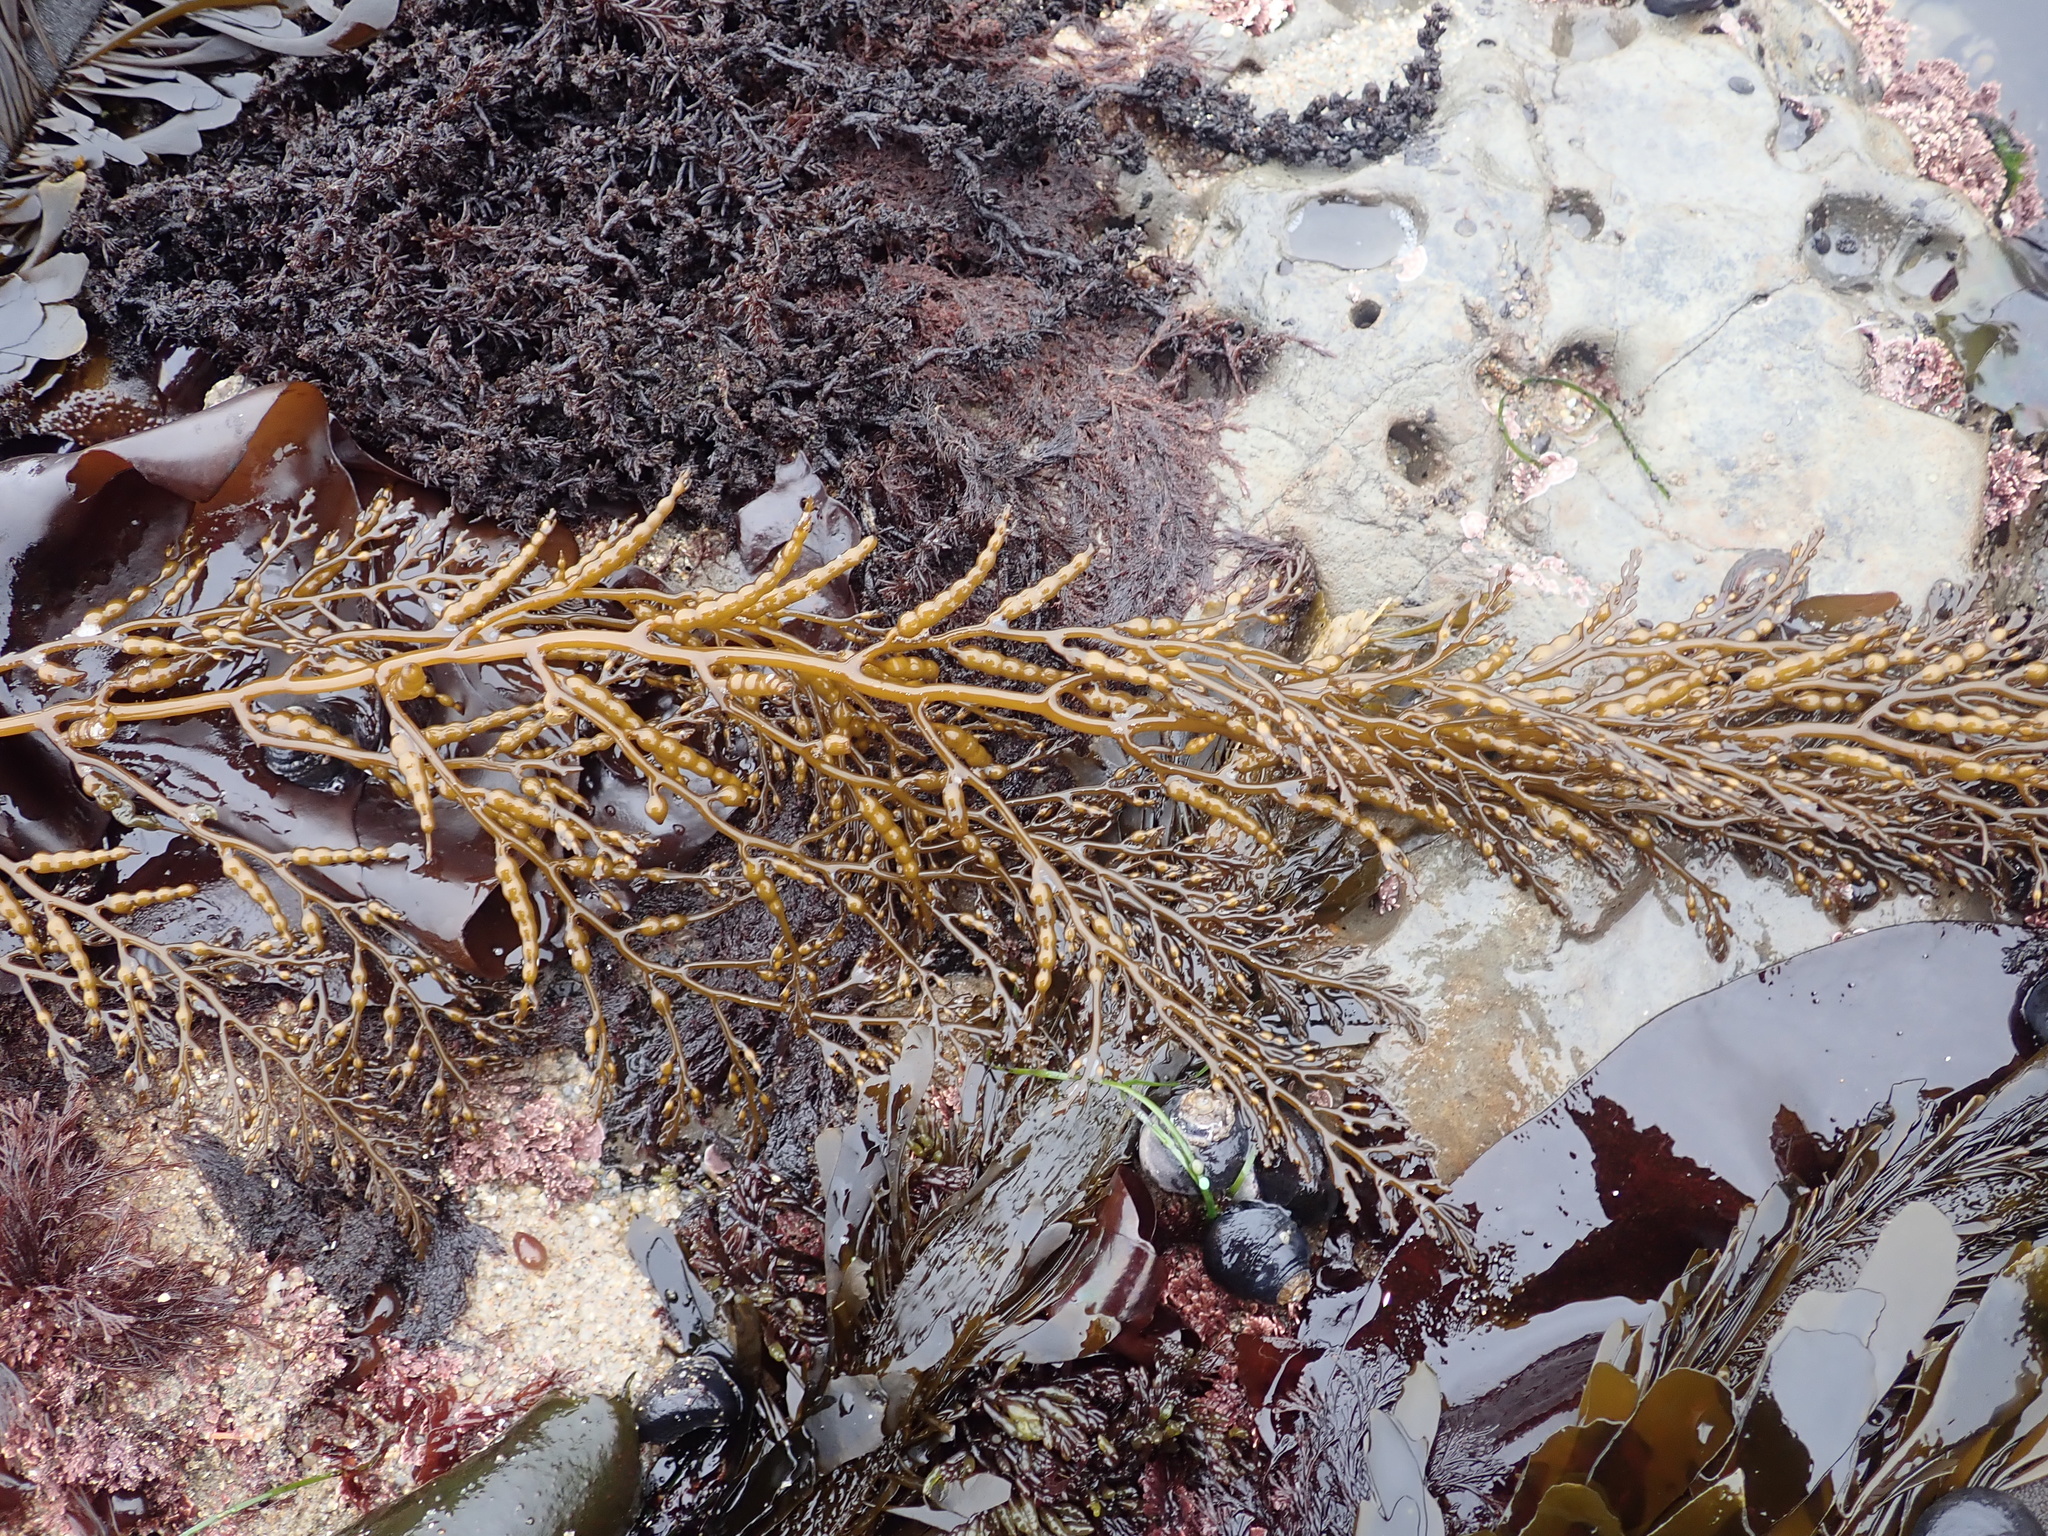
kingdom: Chromista
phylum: Ochrophyta
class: Phaeophyceae
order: Fucales
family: Sargassaceae
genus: Stephanocystis
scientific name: Stephanocystis
